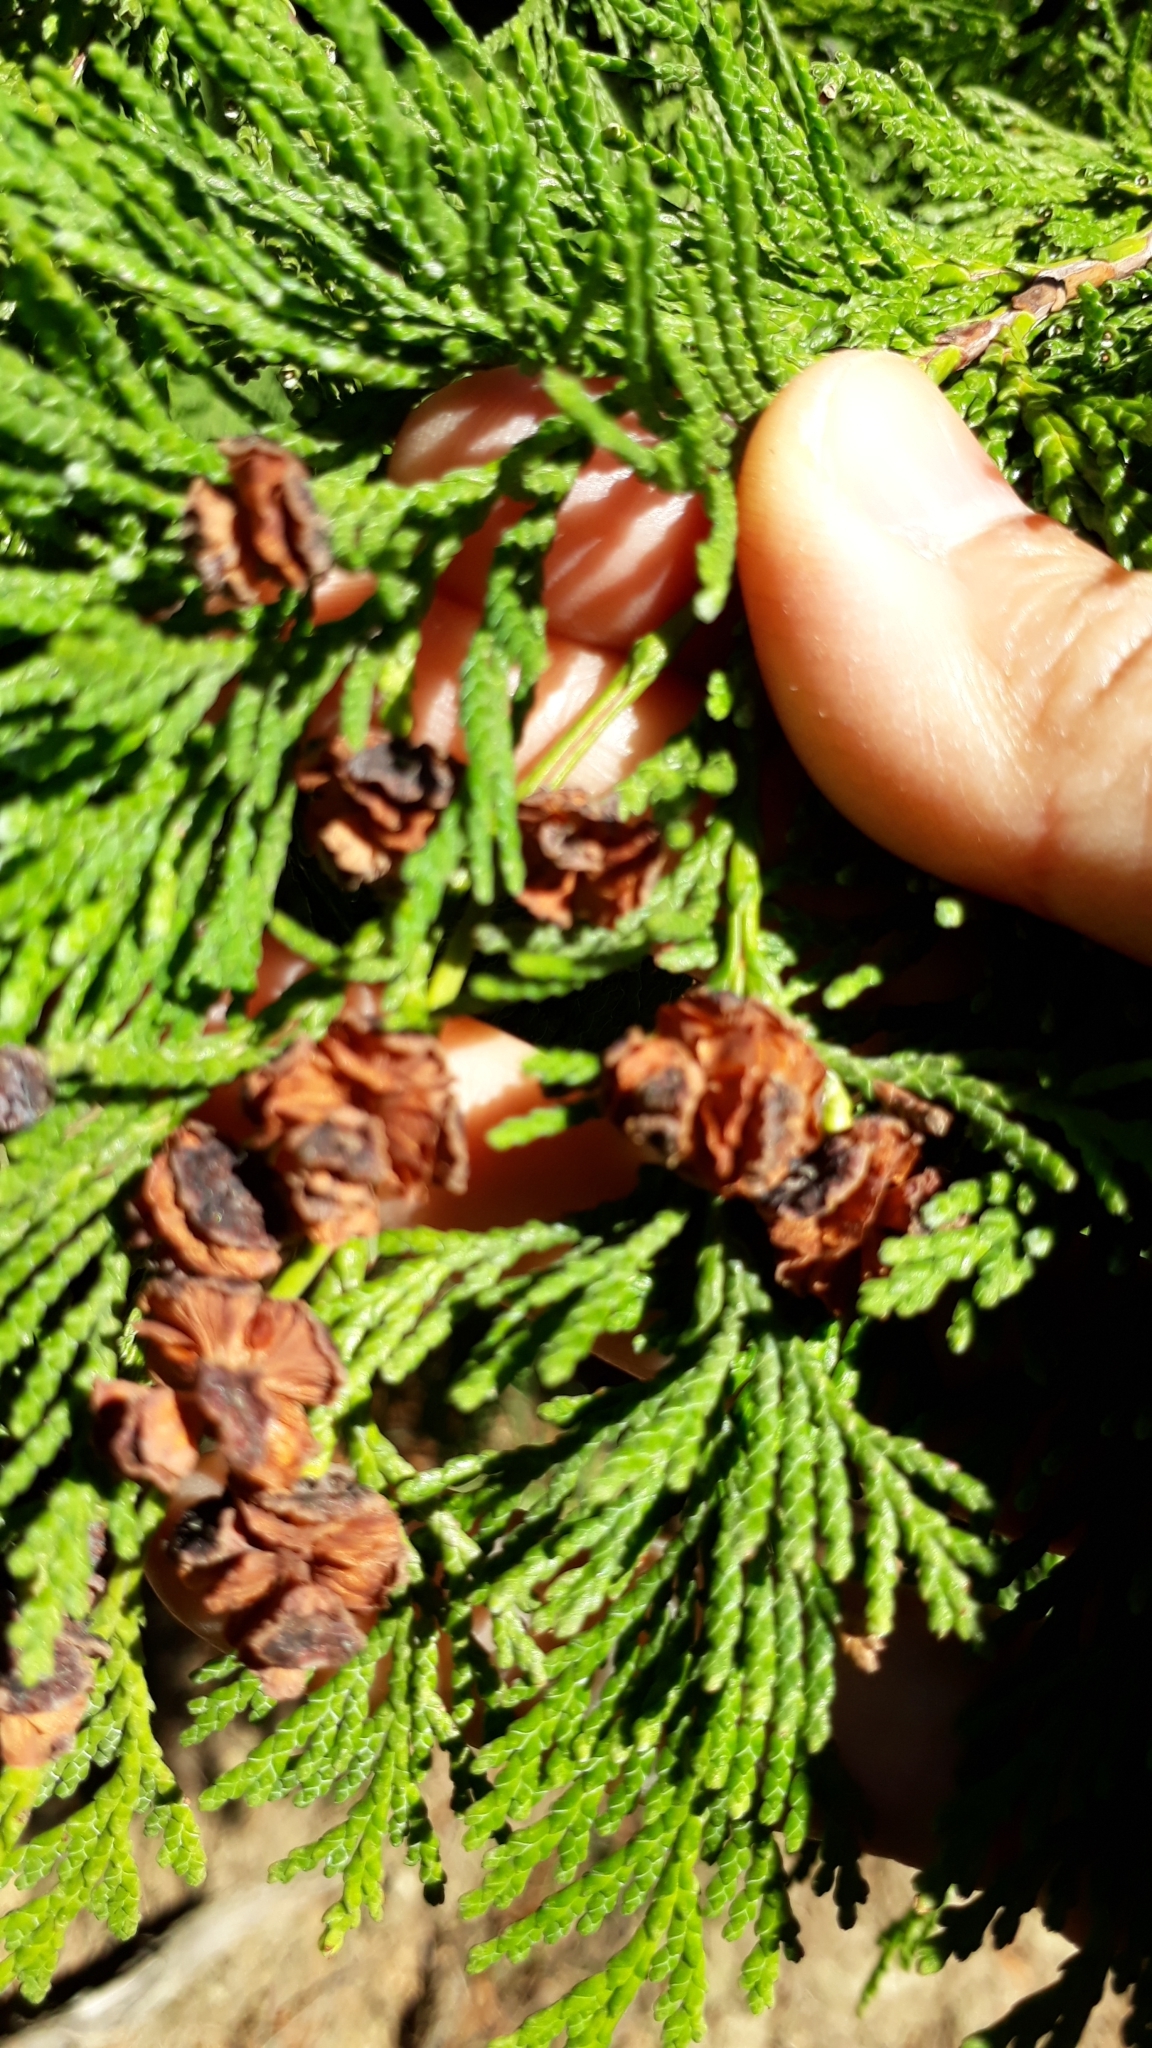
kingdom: Plantae
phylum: Tracheophyta
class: Pinopsida
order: Pinales
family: Cupressaceae
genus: Chamaecyparis
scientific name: Chamaecyparis lawsoniana
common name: Lawson's cypress
